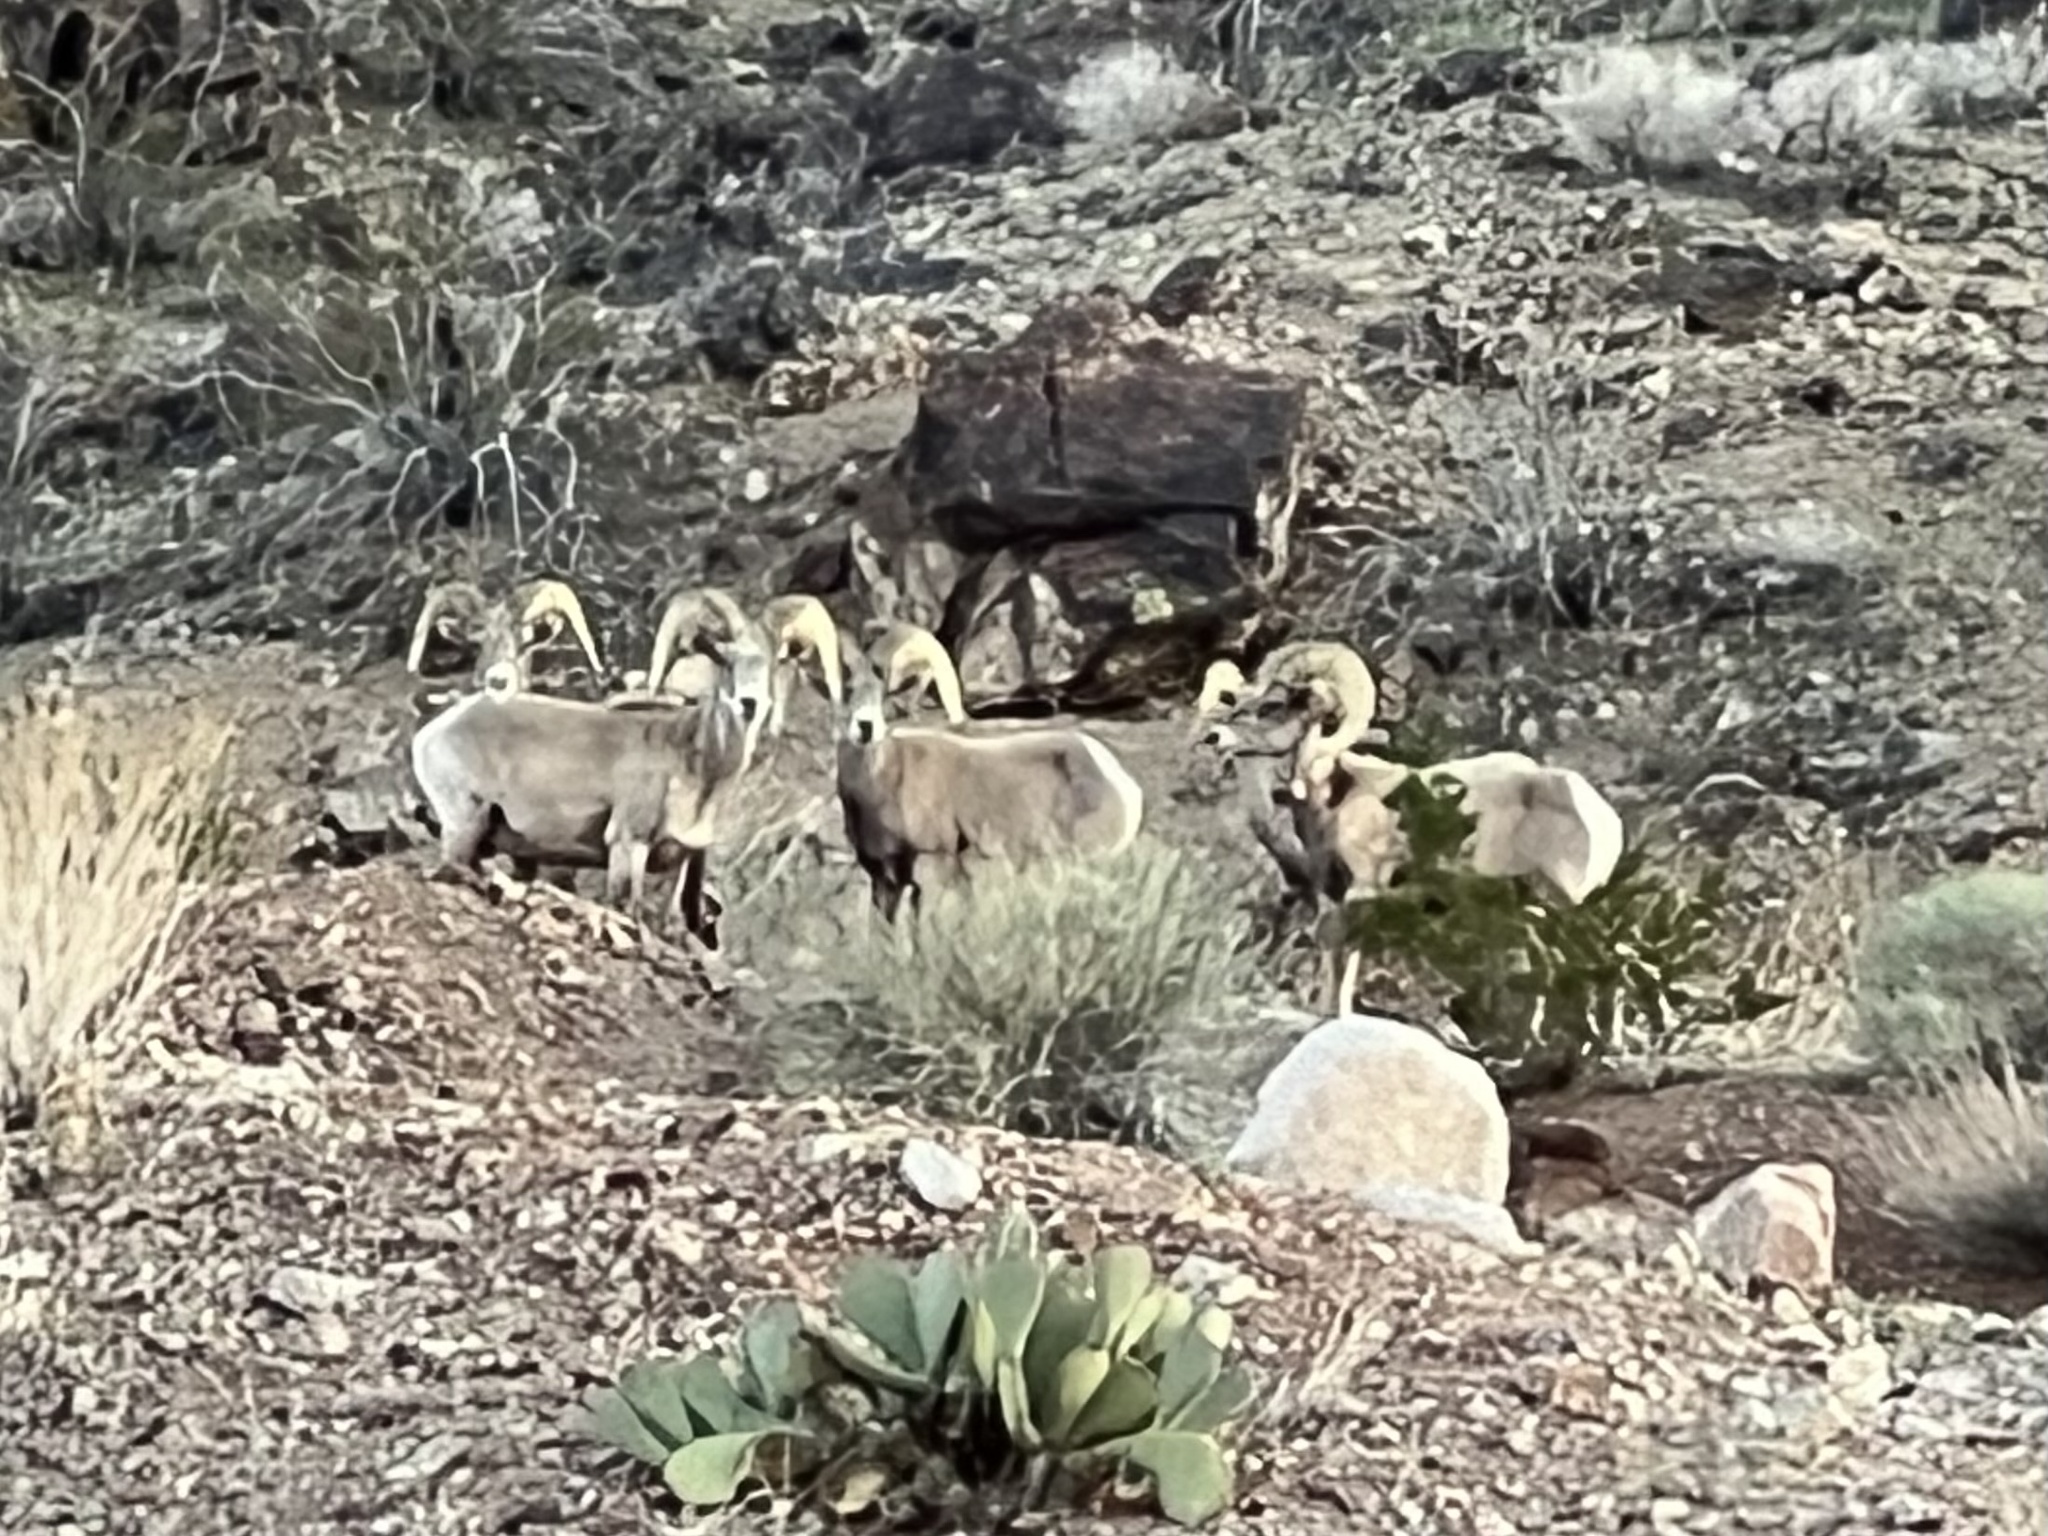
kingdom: Animalia
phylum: Chordata
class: Mammalia
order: Artiodactyla
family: Bovidae
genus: Ovis
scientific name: Ovis canadensis
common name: Bighorn sheep
